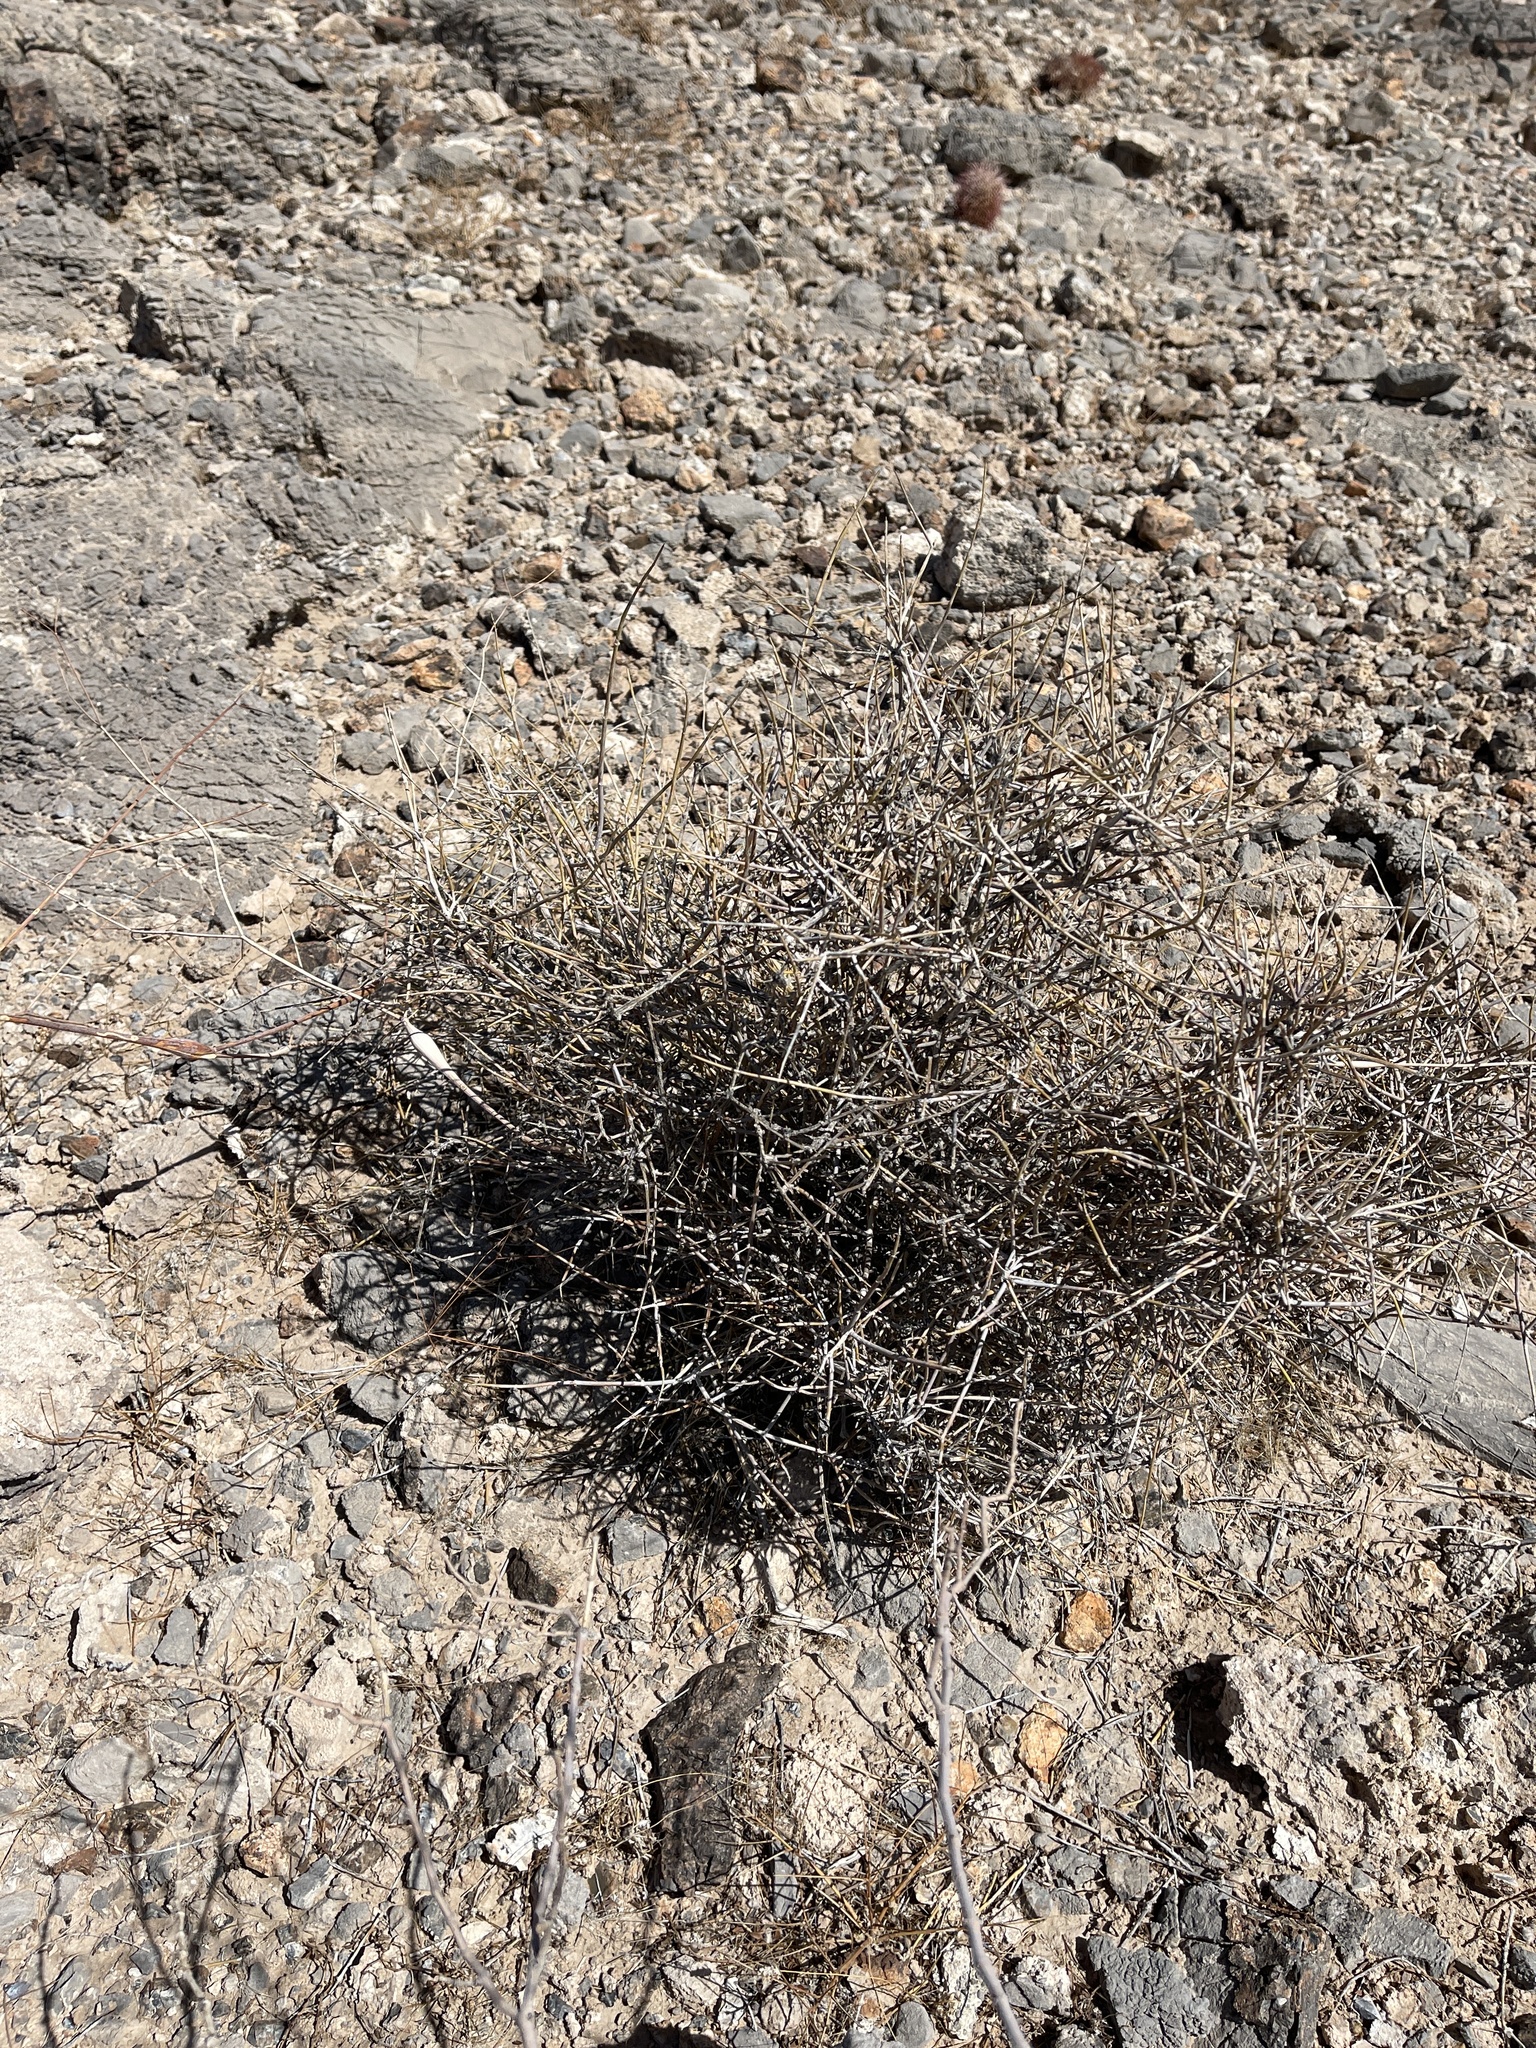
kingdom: Plantae
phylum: Tracheophyta
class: Gnetopsida
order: Ephedrales
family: Ephedraceae
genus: Ephedra
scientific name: Ephedra nevadensis
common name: Gray ephedra
